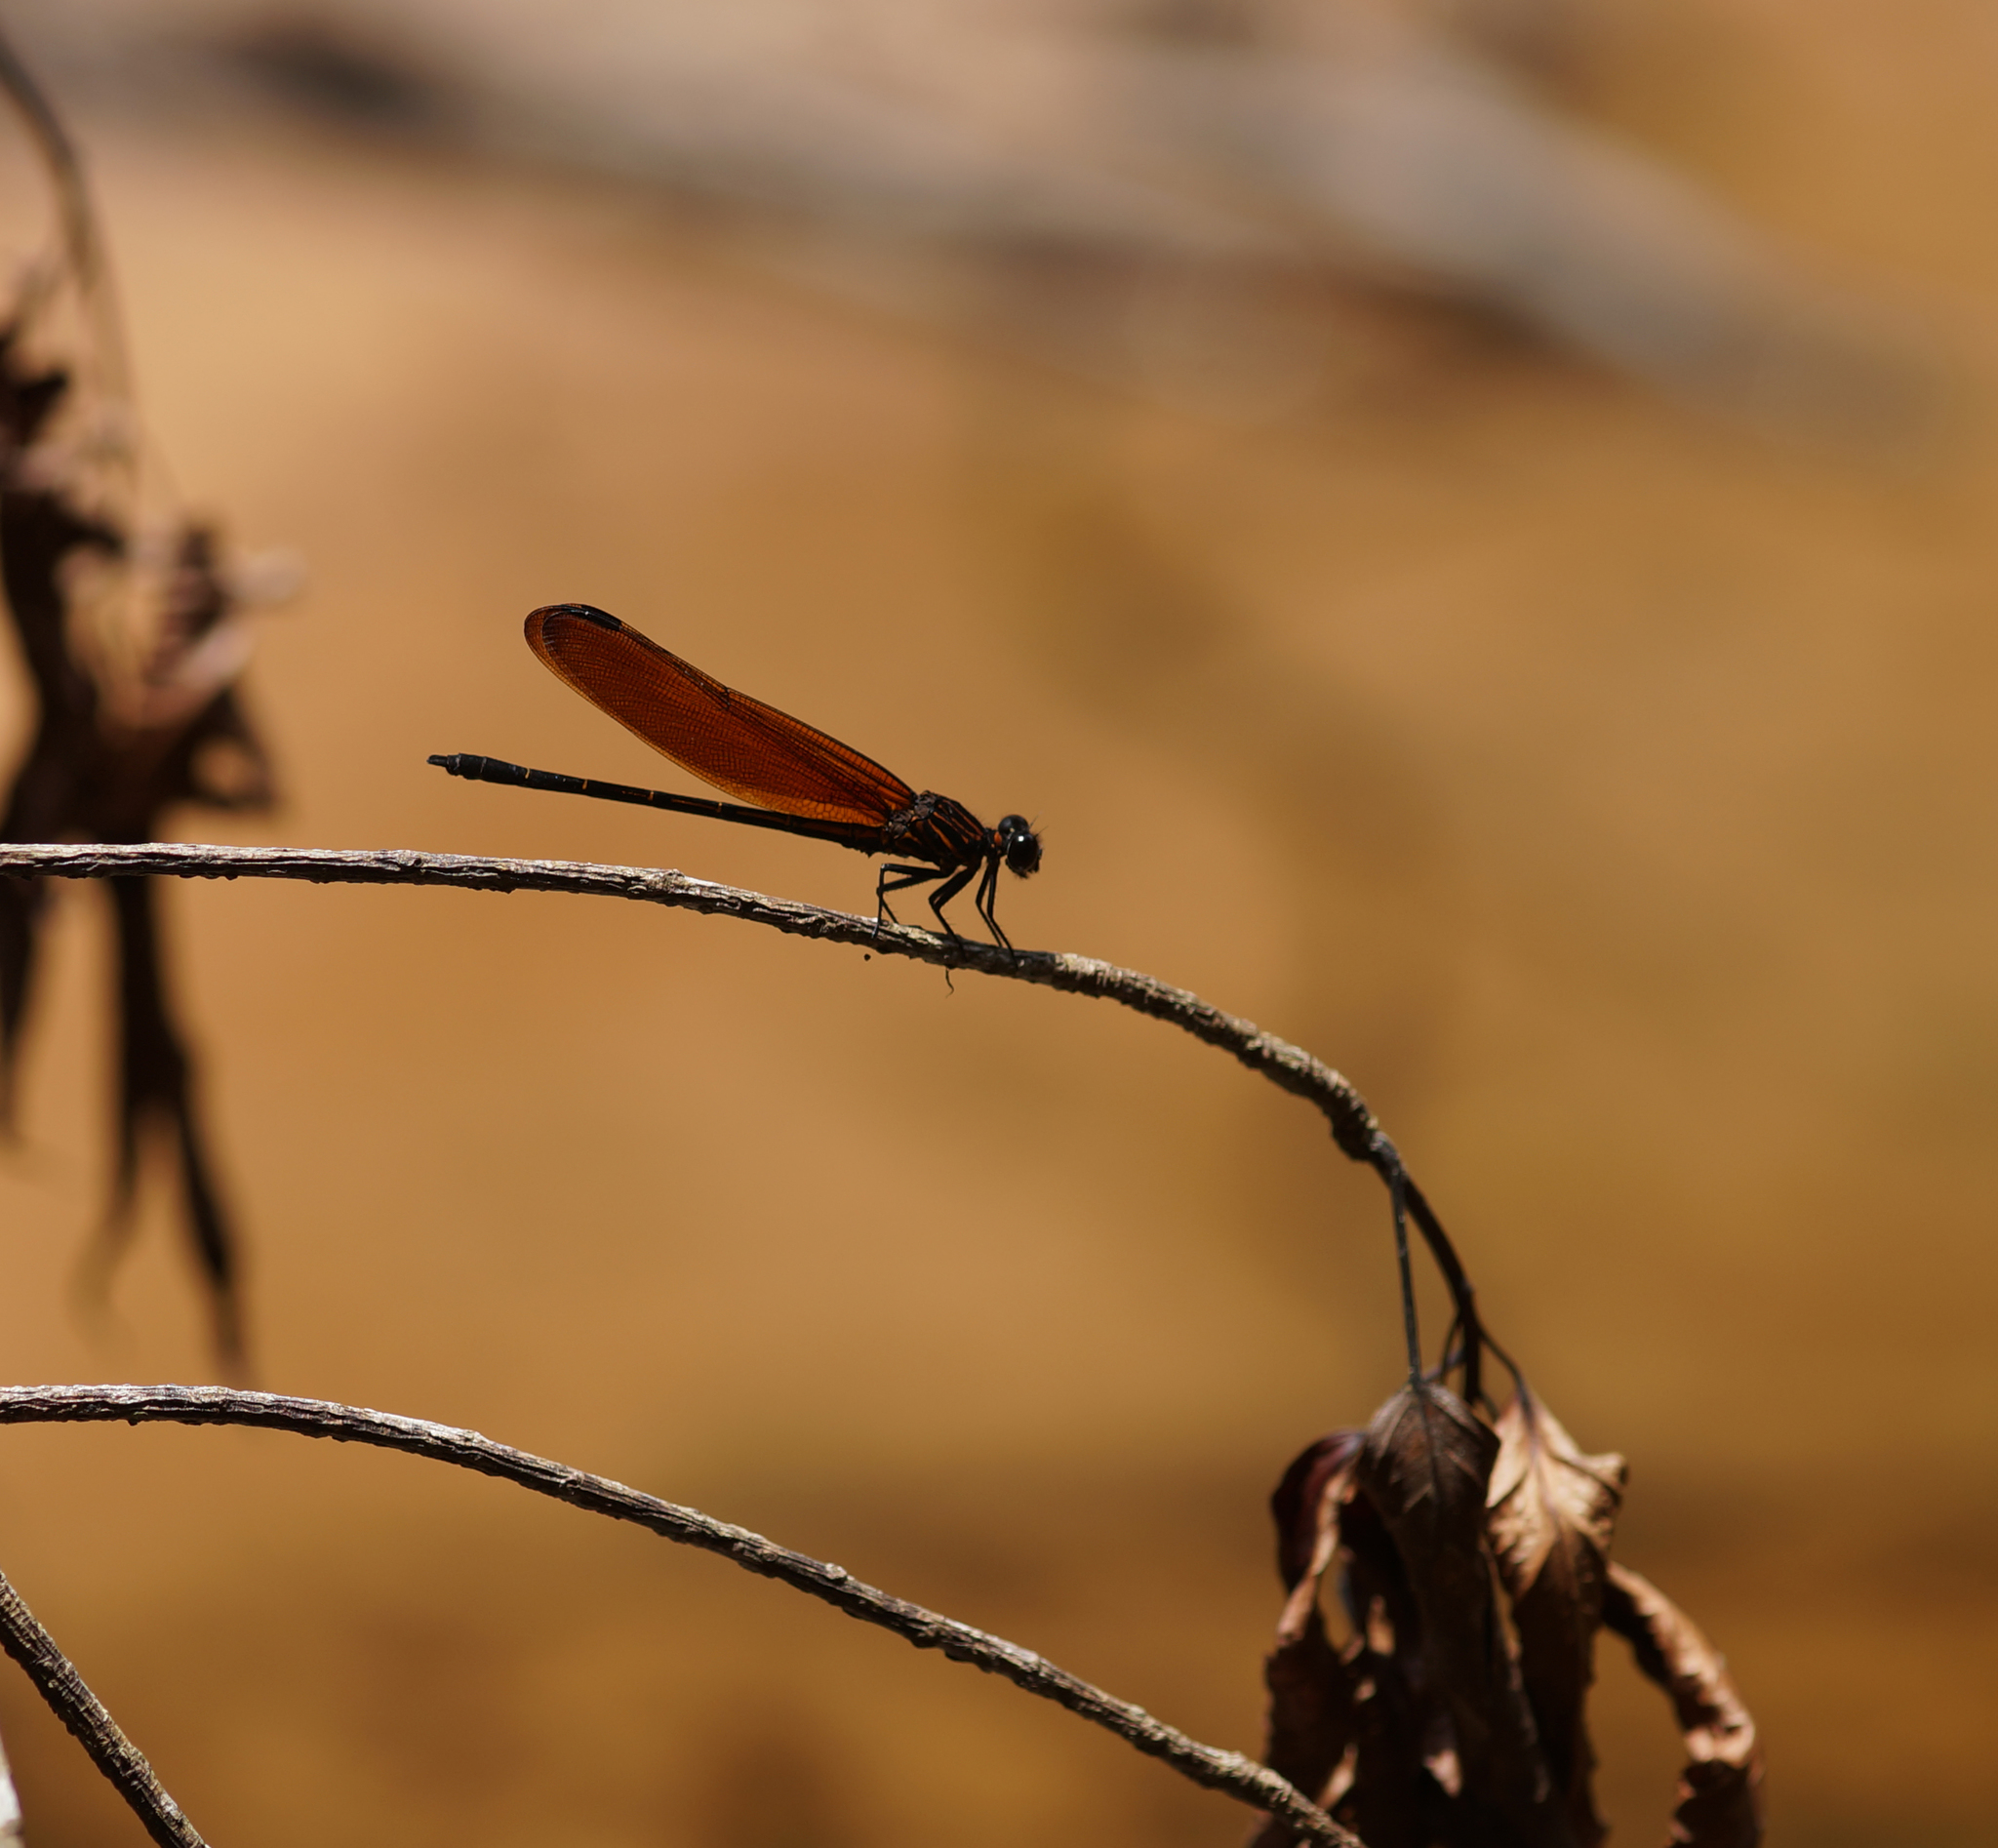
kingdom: Animalia
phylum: Arthropoda
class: Insecta
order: Odonata
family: Euphaeidae
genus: Dysphaea
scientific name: Dysphaea gloriosa
